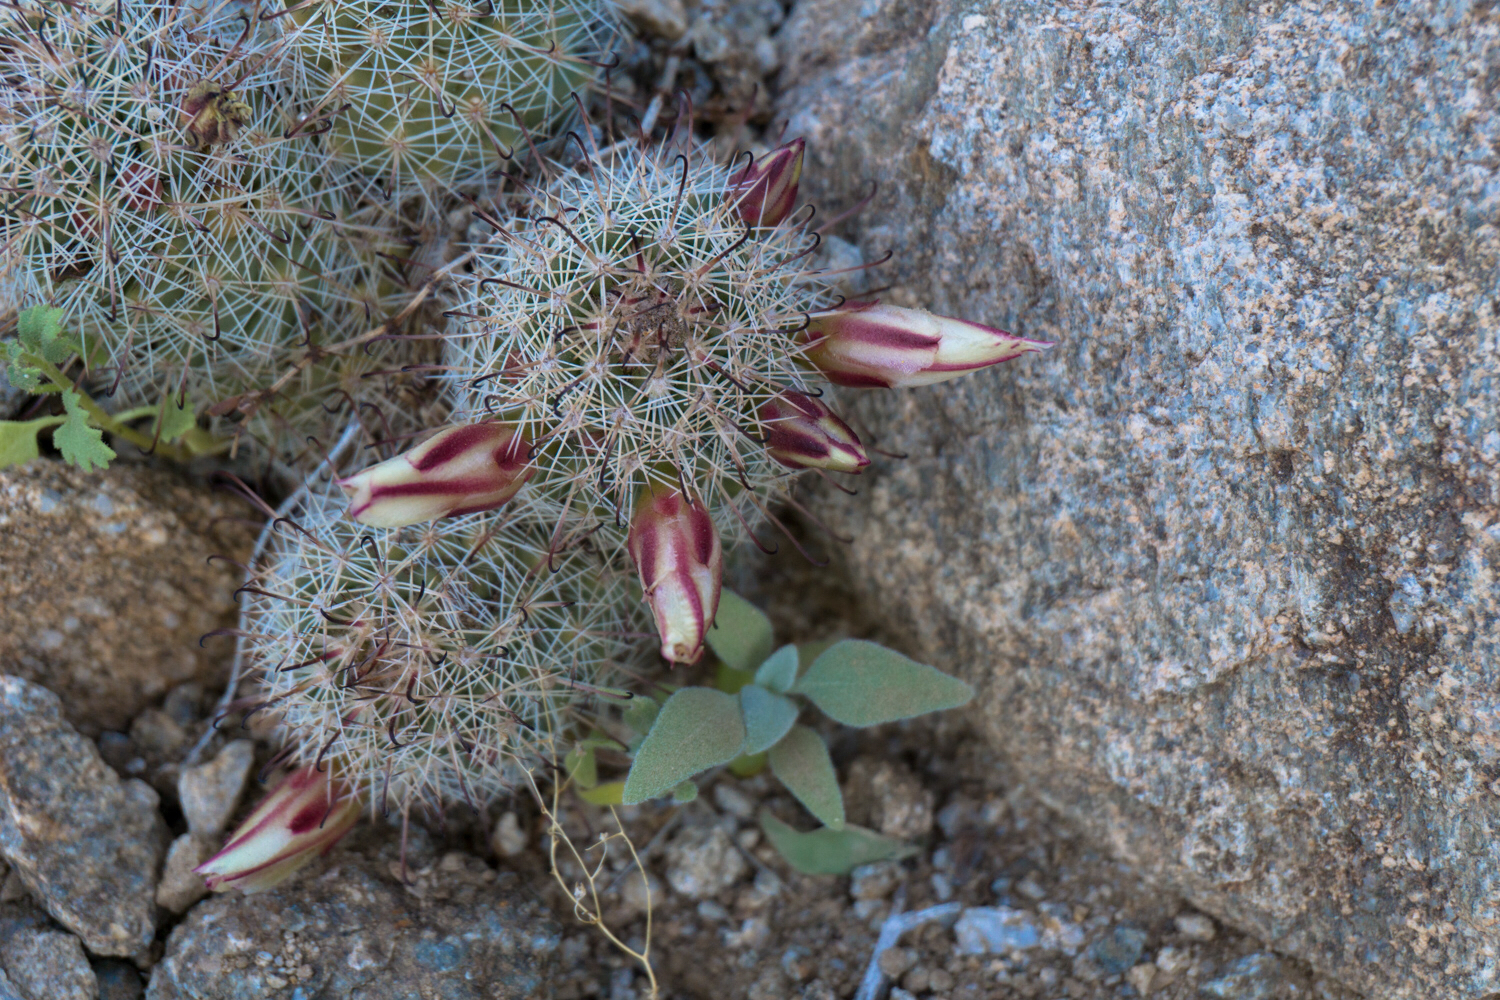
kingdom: Plantae
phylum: Tracheophyta
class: Magnoliopsida
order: Caryophyllales
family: Cactaceae
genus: Cochemiea
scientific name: Cochemiea dioica
